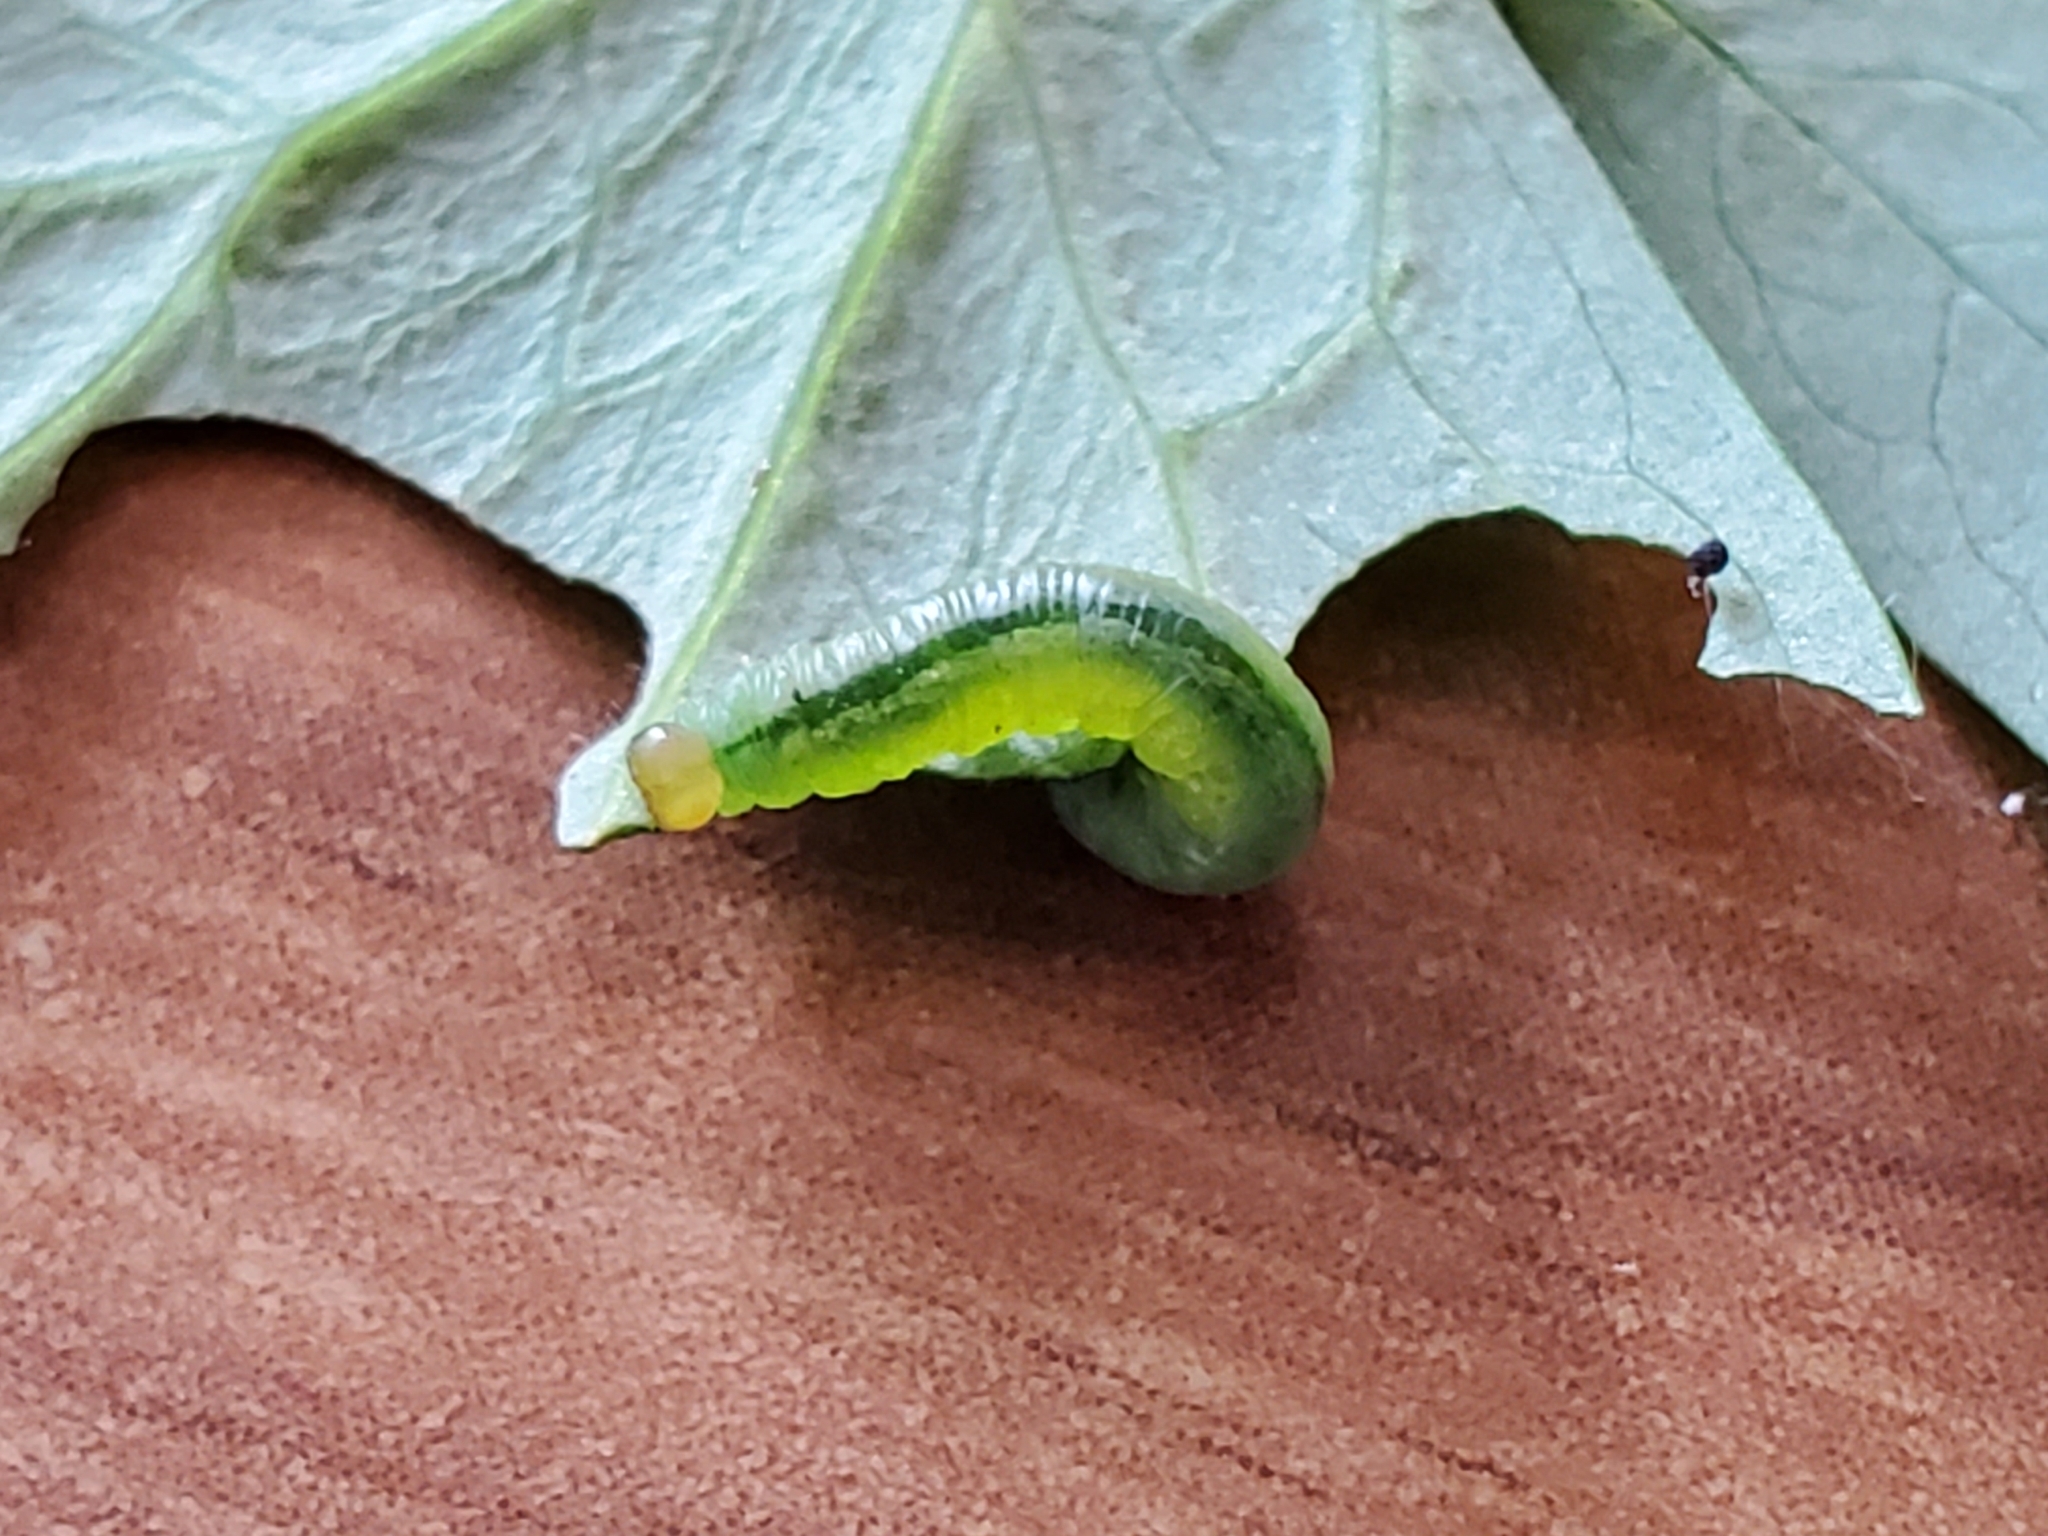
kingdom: Animalia
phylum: Arthropoda
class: Insecta
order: Hymenoptera
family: Tenthredinidae
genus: Pristiphora
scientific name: Pristiphora rufipes
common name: Sawfly
